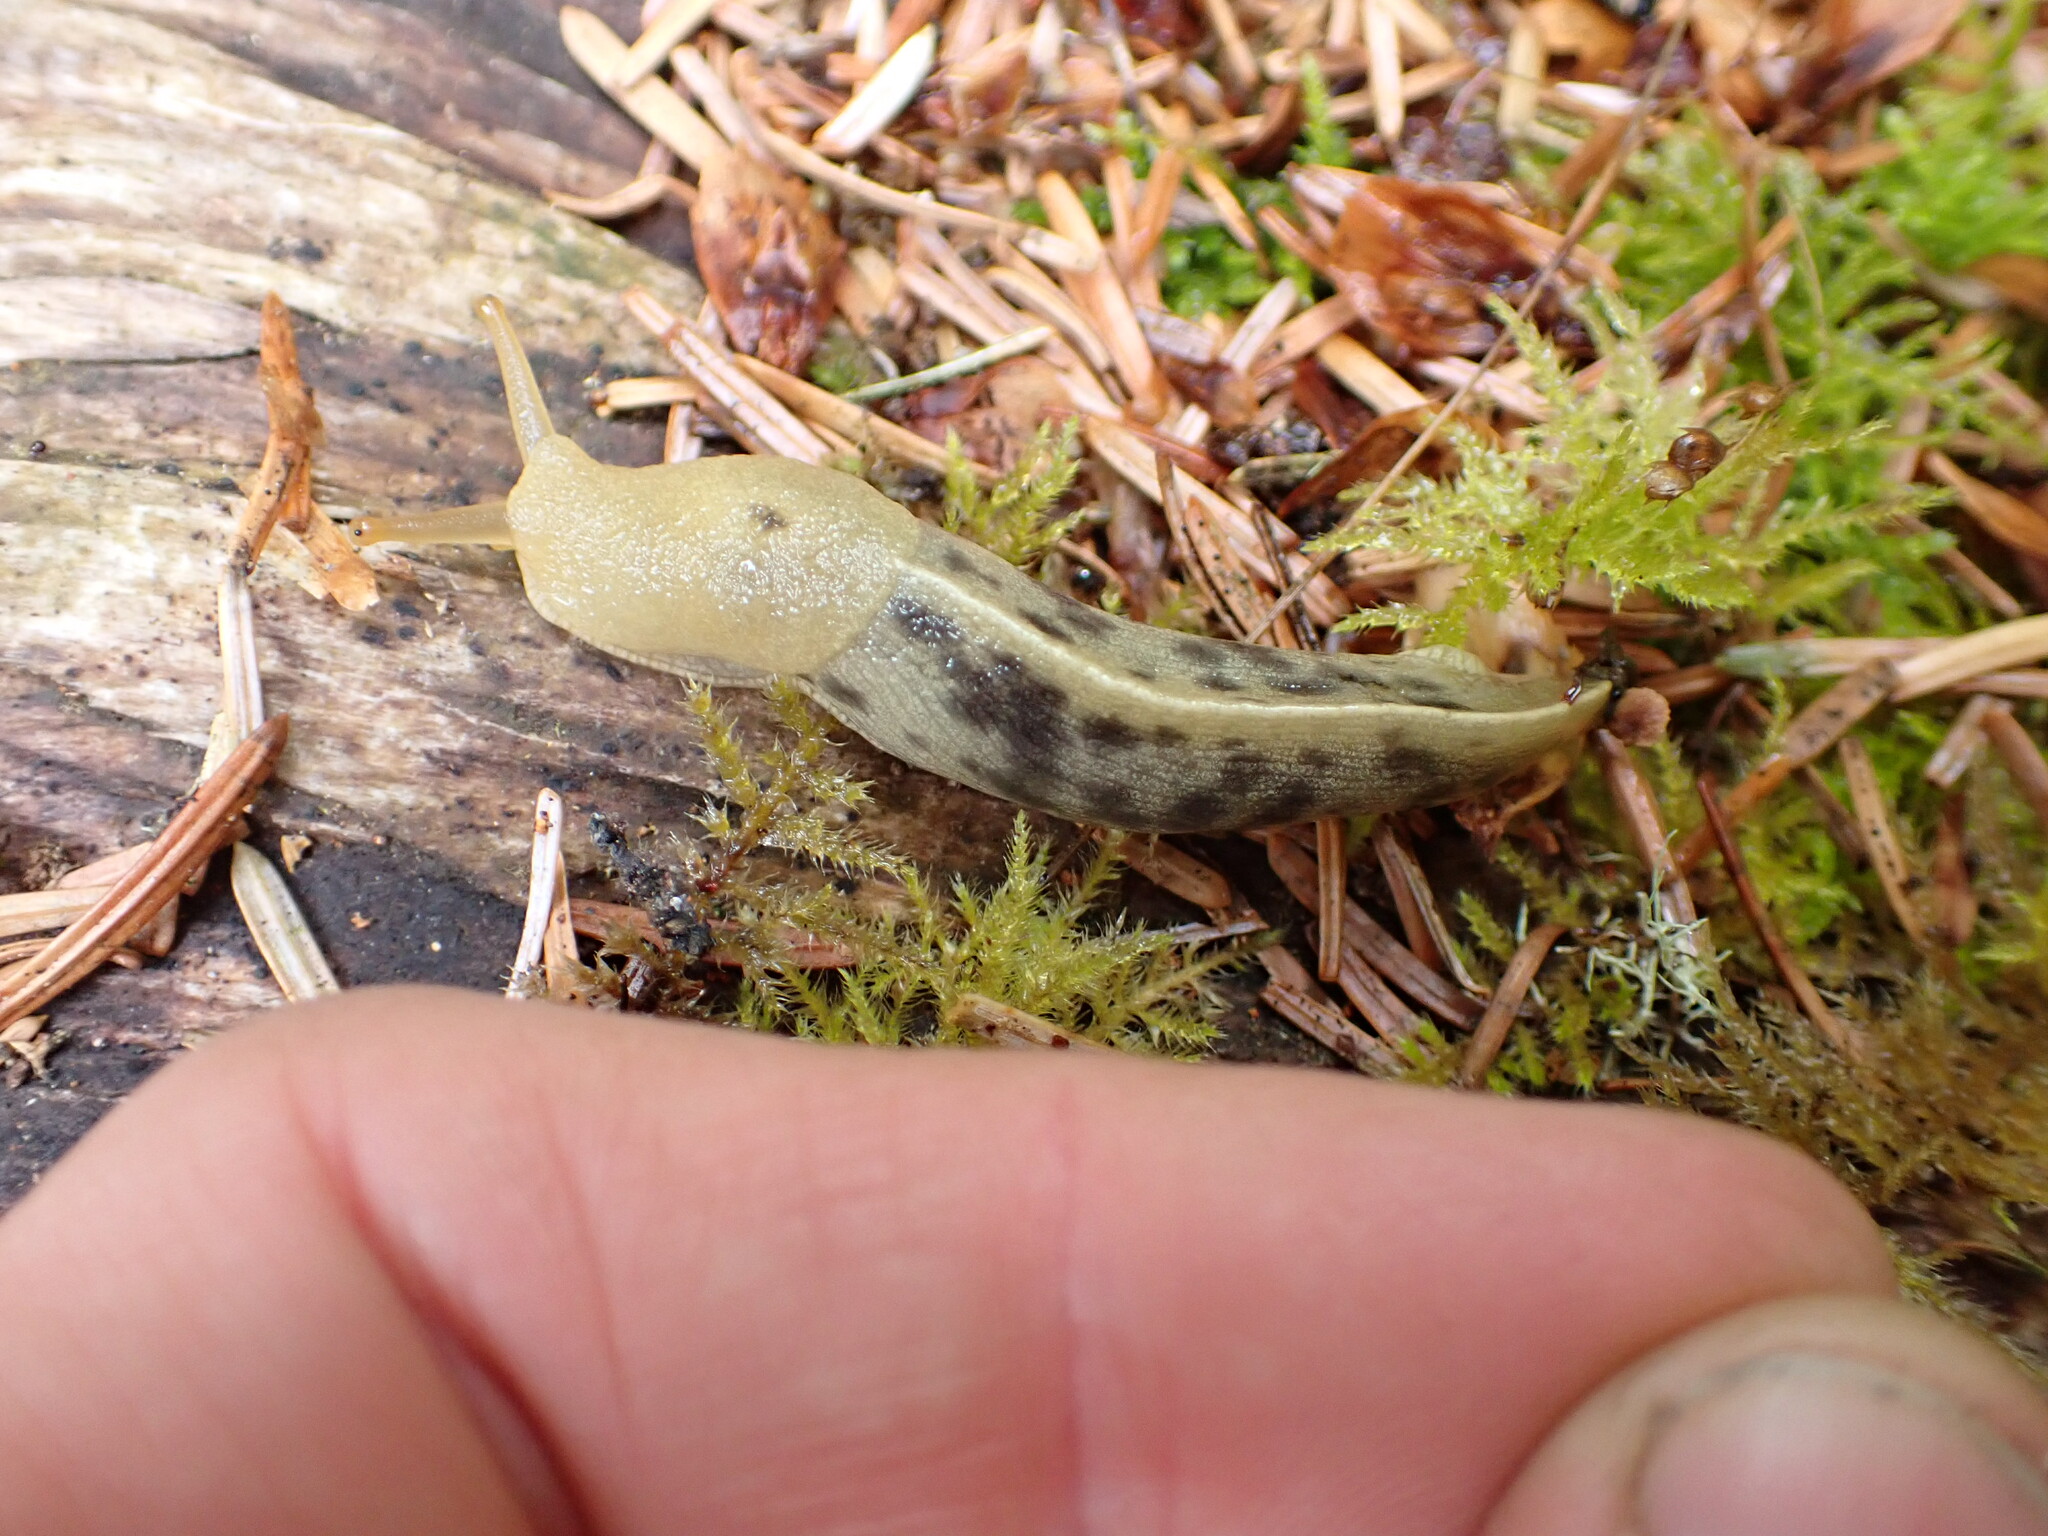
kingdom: Animalia
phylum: Mollusca
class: Gastropoda
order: Stylommatophora
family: Ariolimacidae
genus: Ariolimax
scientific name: Ariolimax columbianus
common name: Pacific banana slug
